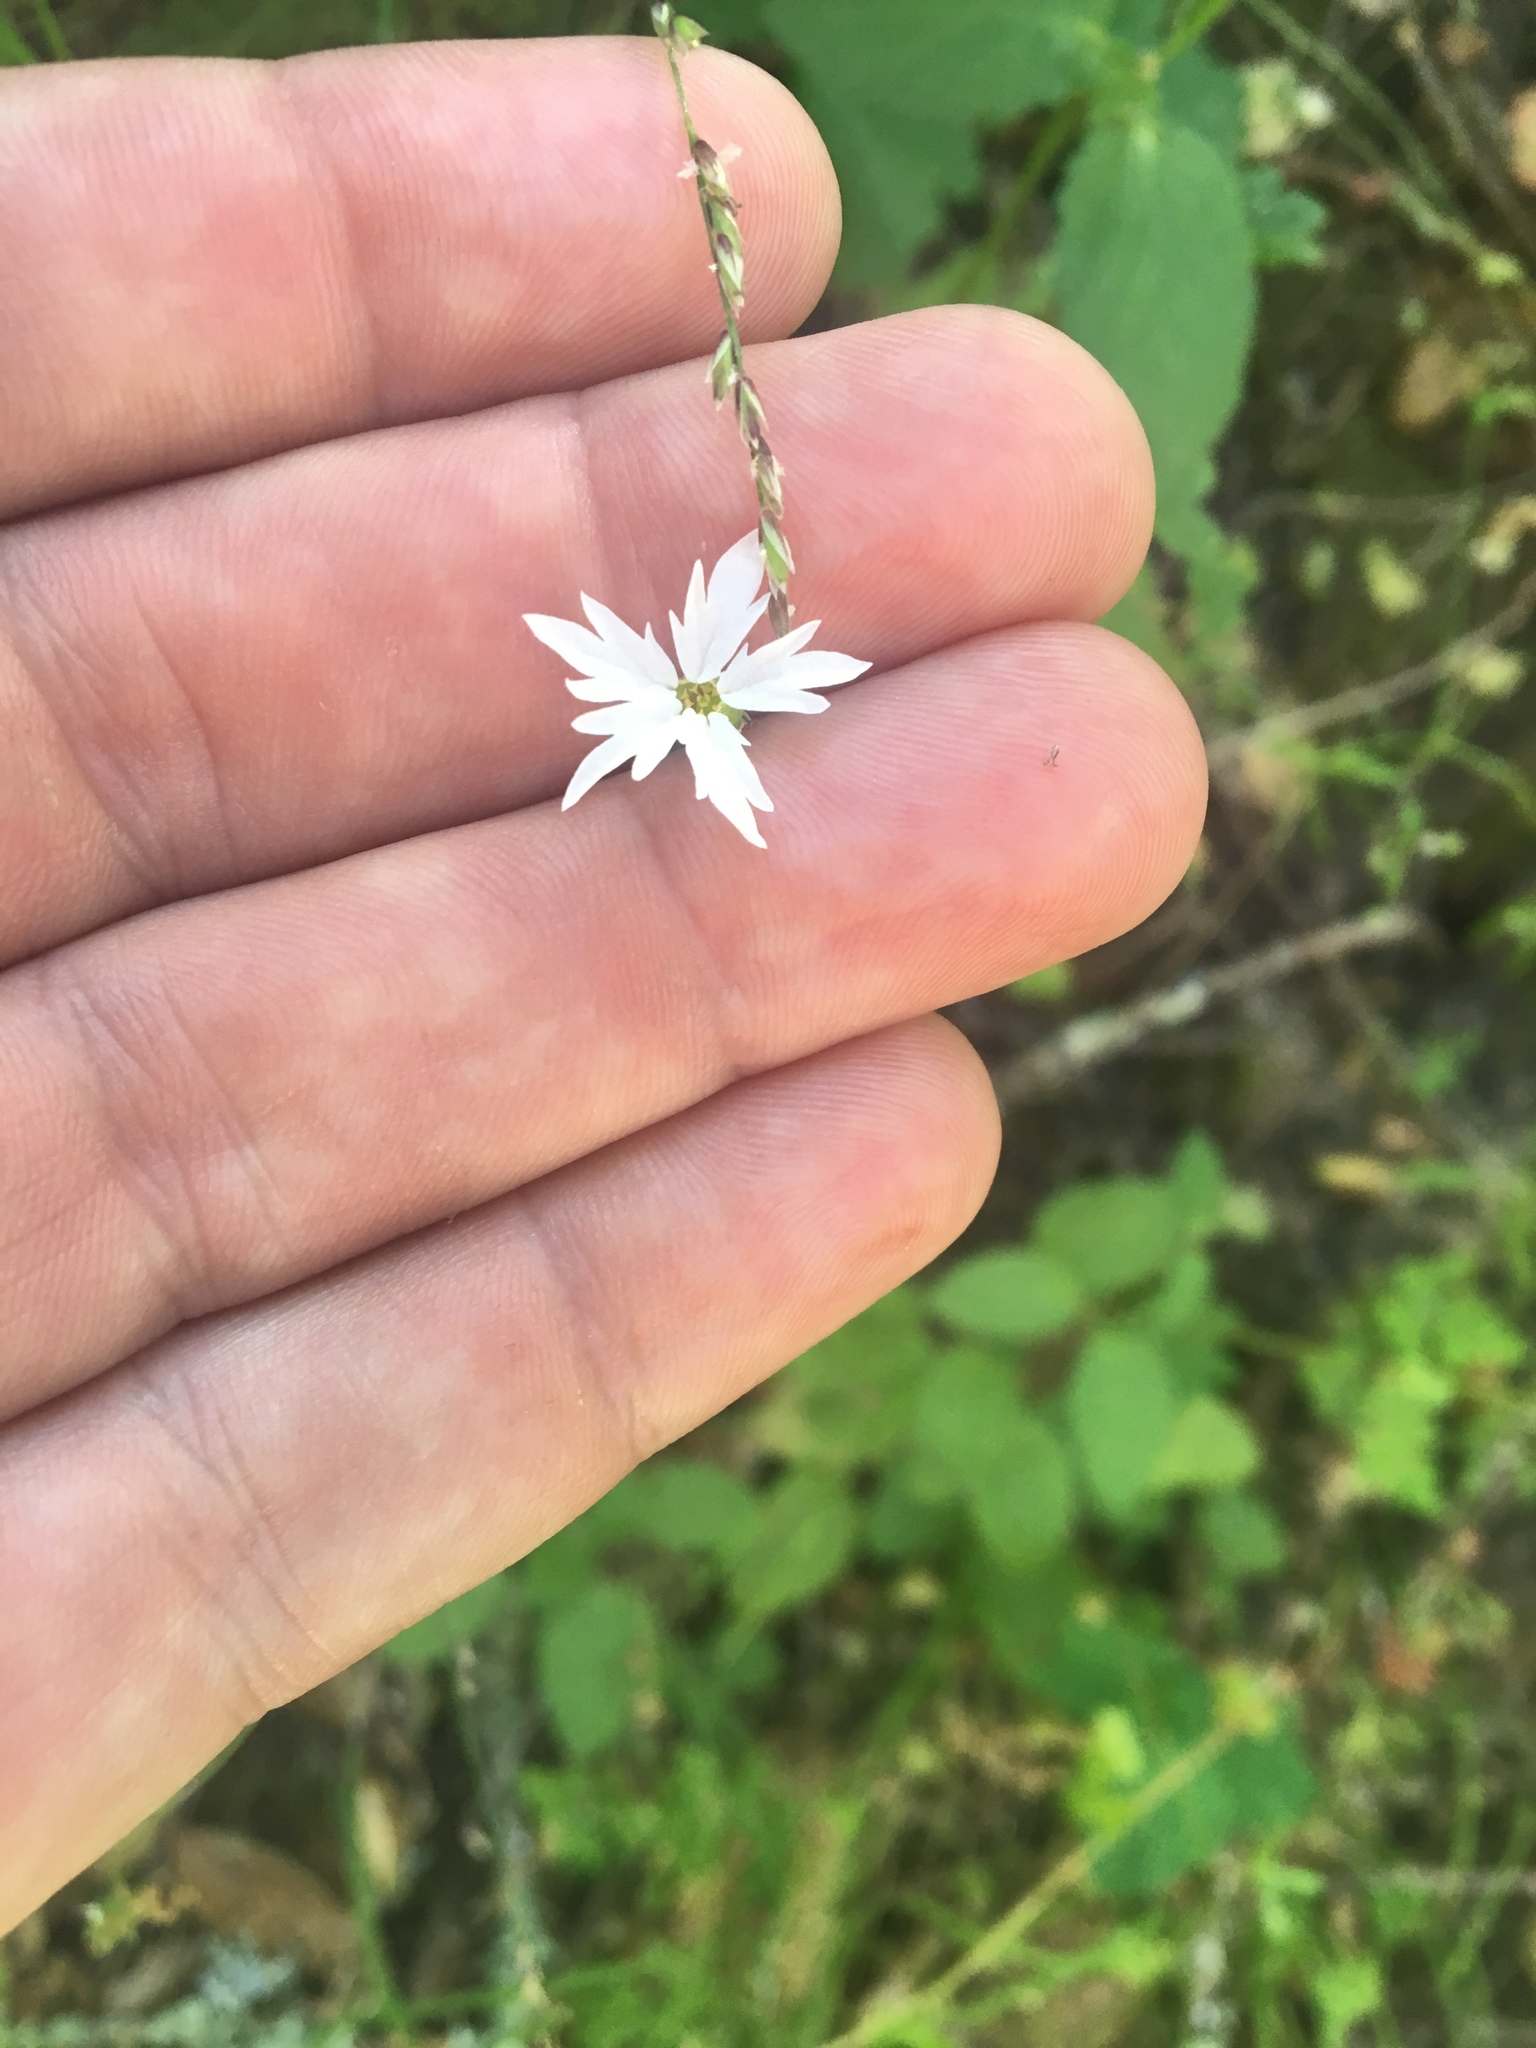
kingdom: Plantae
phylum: Tracheophyta
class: Magnoliopsida
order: Saxifragales
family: Saxifragaceae
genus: Lithophragma
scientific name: Lithophragma heterophyllum
